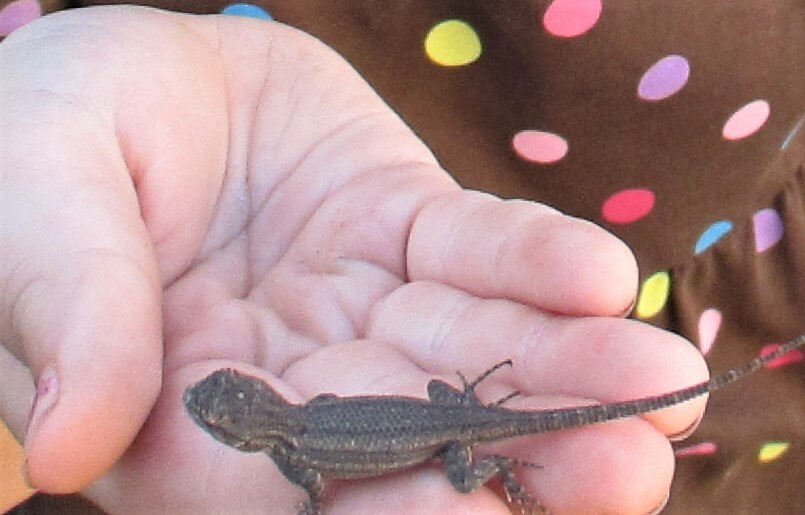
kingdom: Animalia
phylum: Chordata
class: Squamata
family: Phrynosomatidae
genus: Sceloporus
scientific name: Sceloporus occidentalis
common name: Western fence lizard
